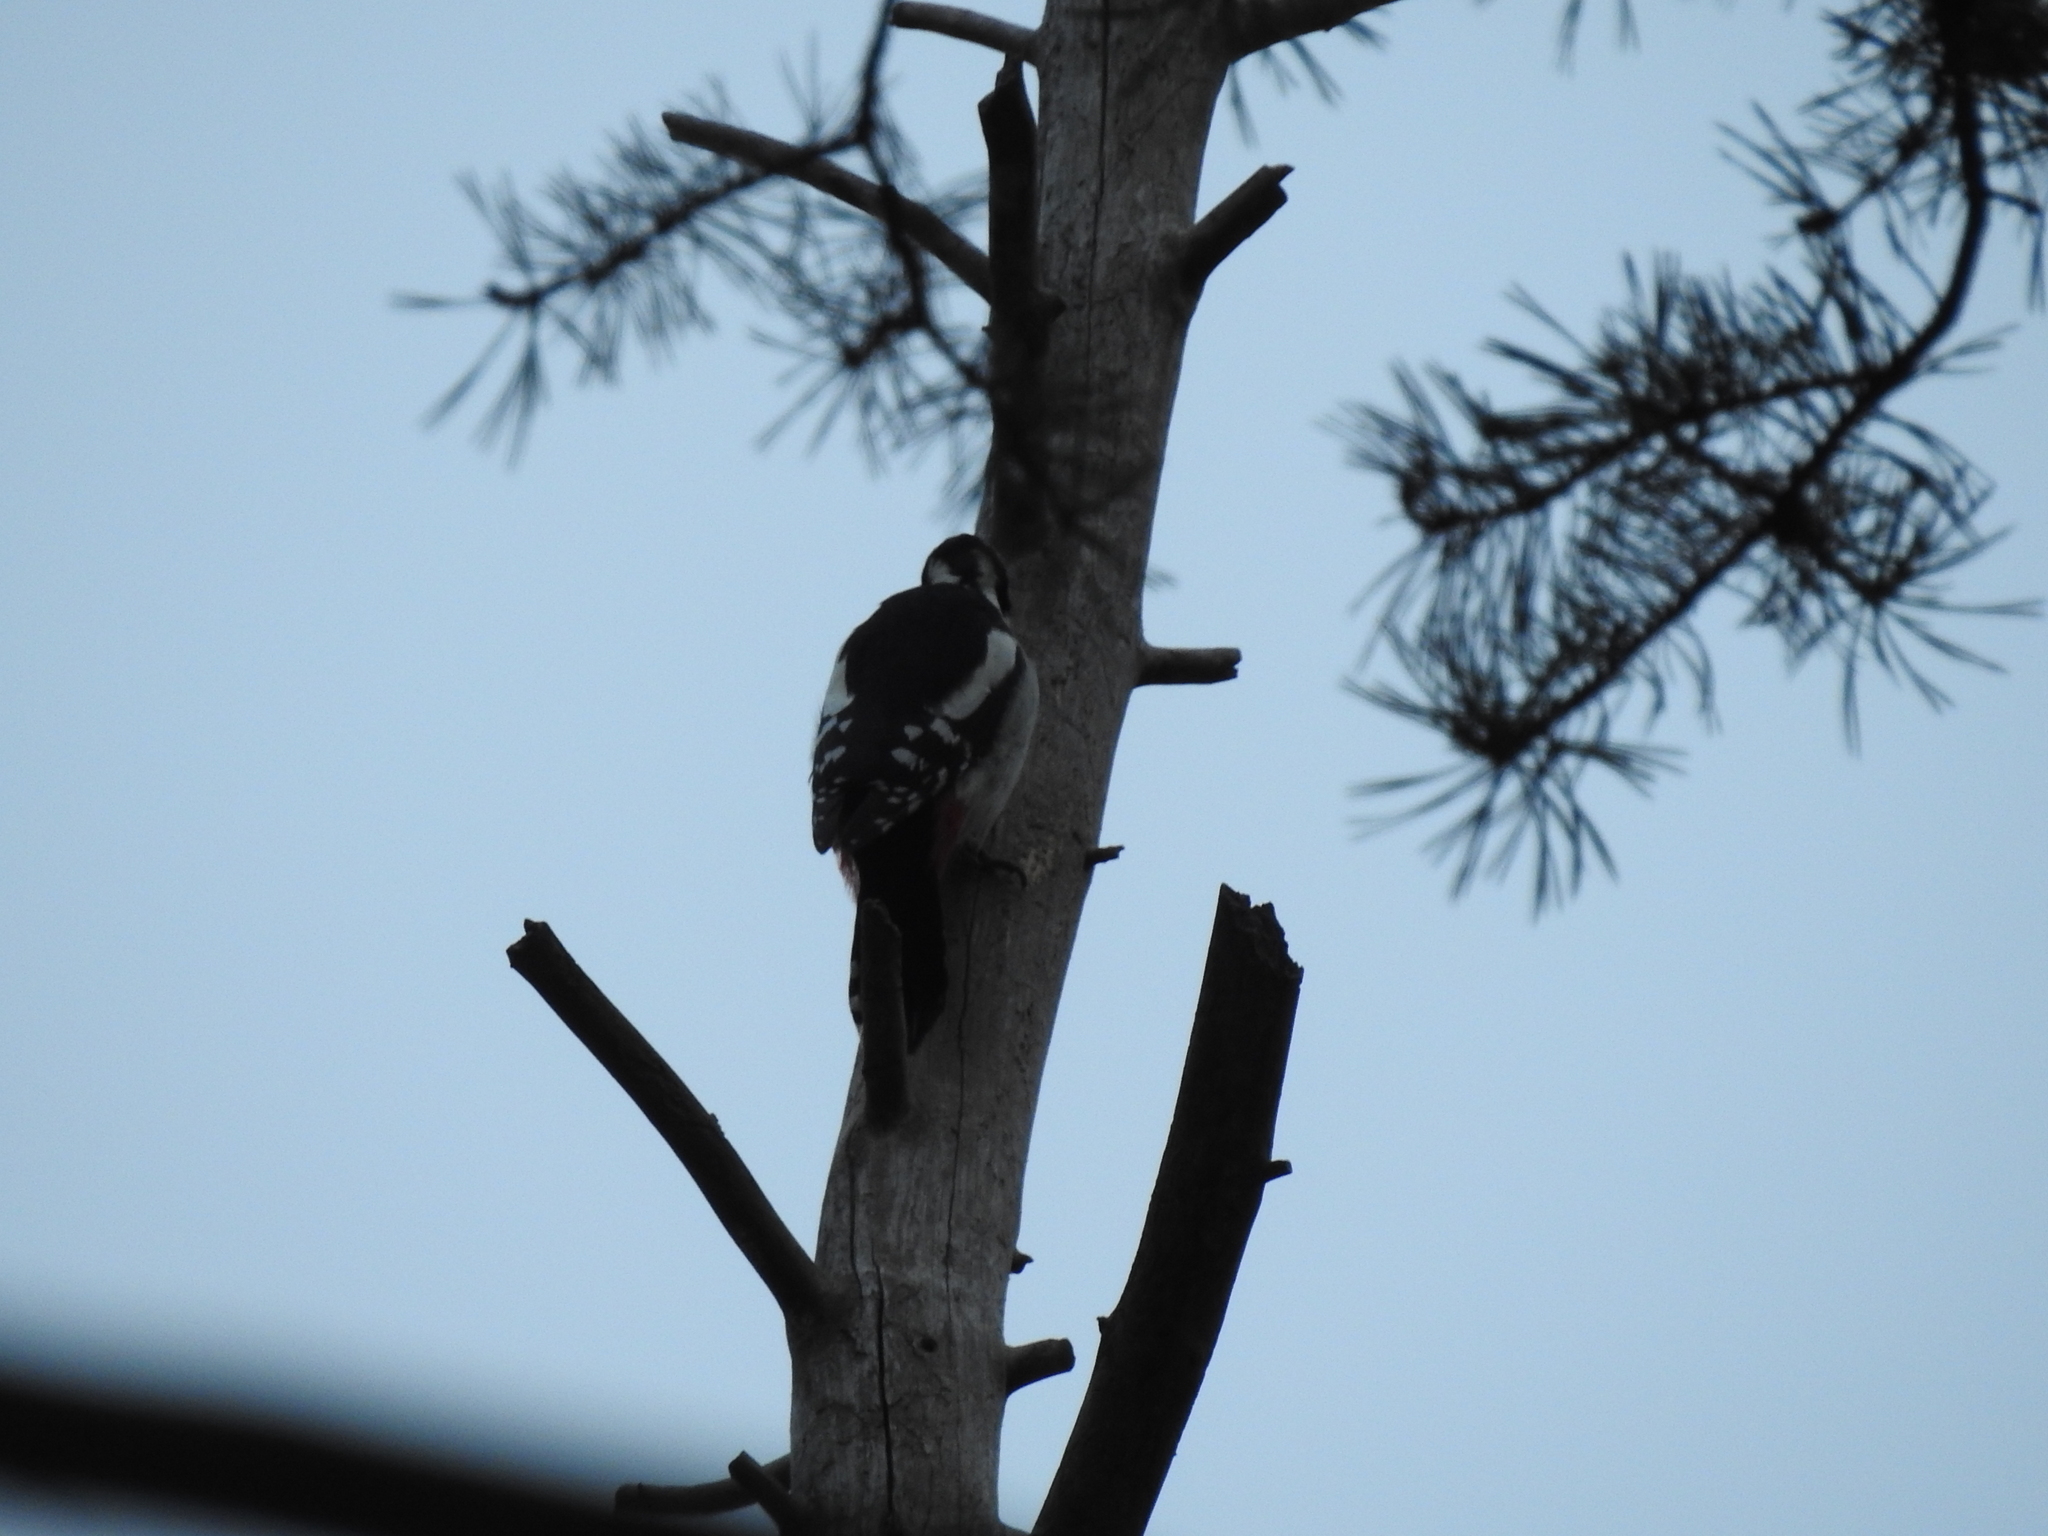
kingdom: Animalia
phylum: Chordata
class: Aves
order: Piciformes
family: Picidae
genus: Dendrocopos
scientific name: Dendrocopos major
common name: Great spotted woodpecker
